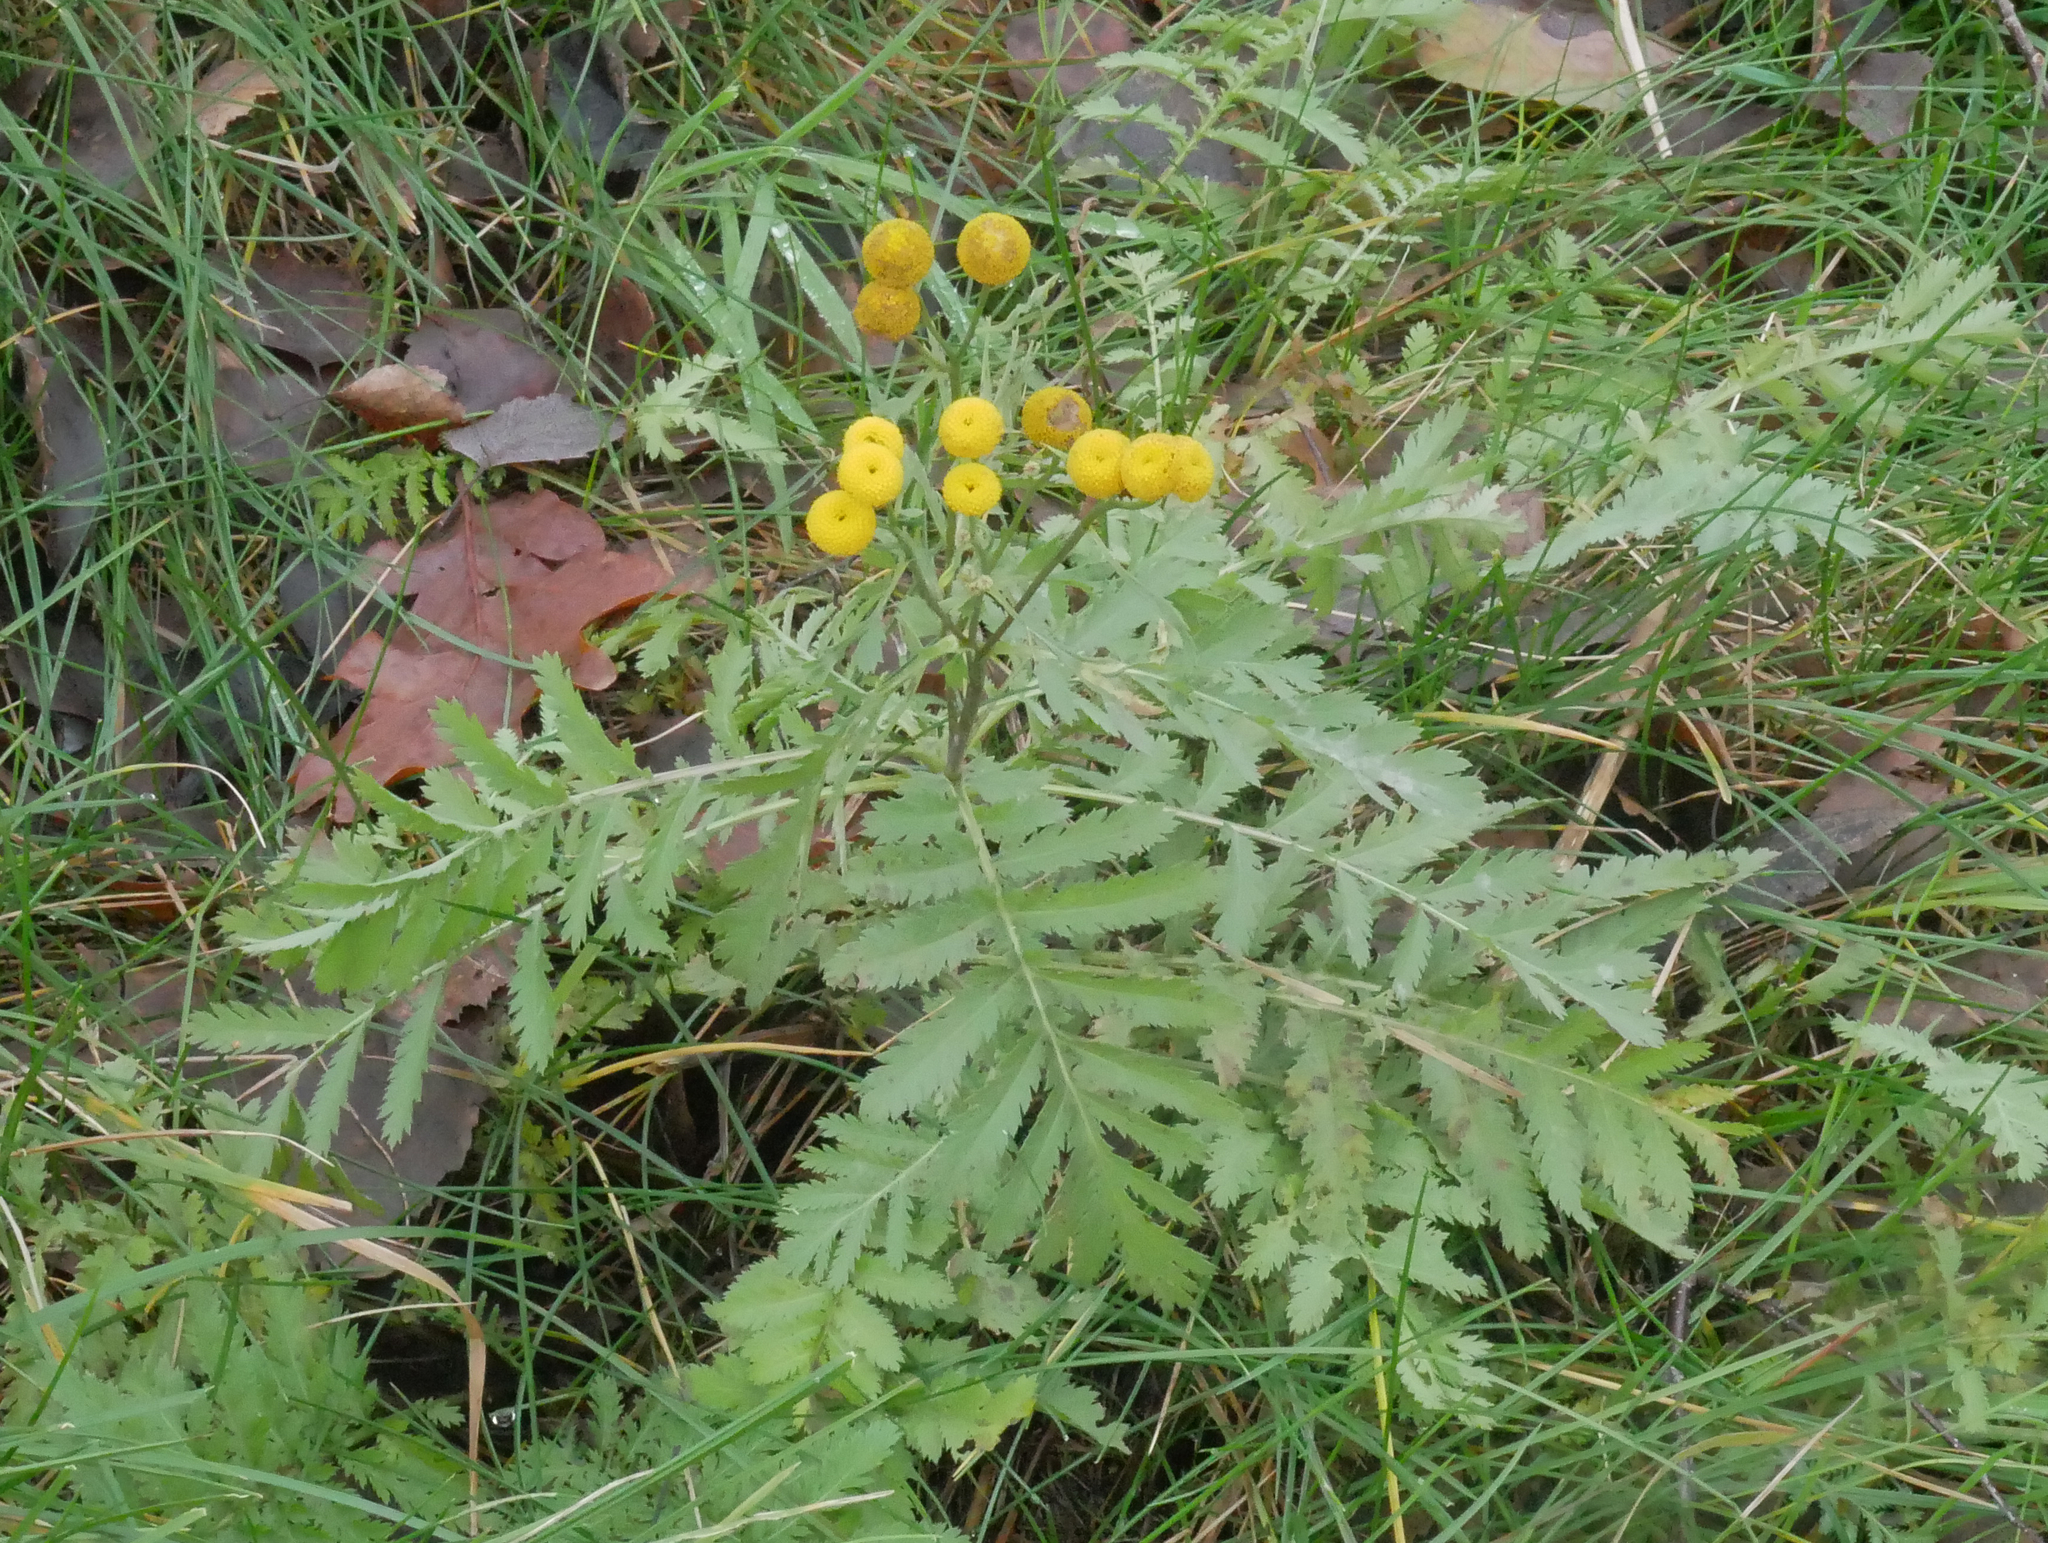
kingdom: Plantae
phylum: Tracheophyta
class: Magnoliopsida
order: Asterales
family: Asteraceae
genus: Tanacetum
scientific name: Tanacetum vulgare
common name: Common tansy
